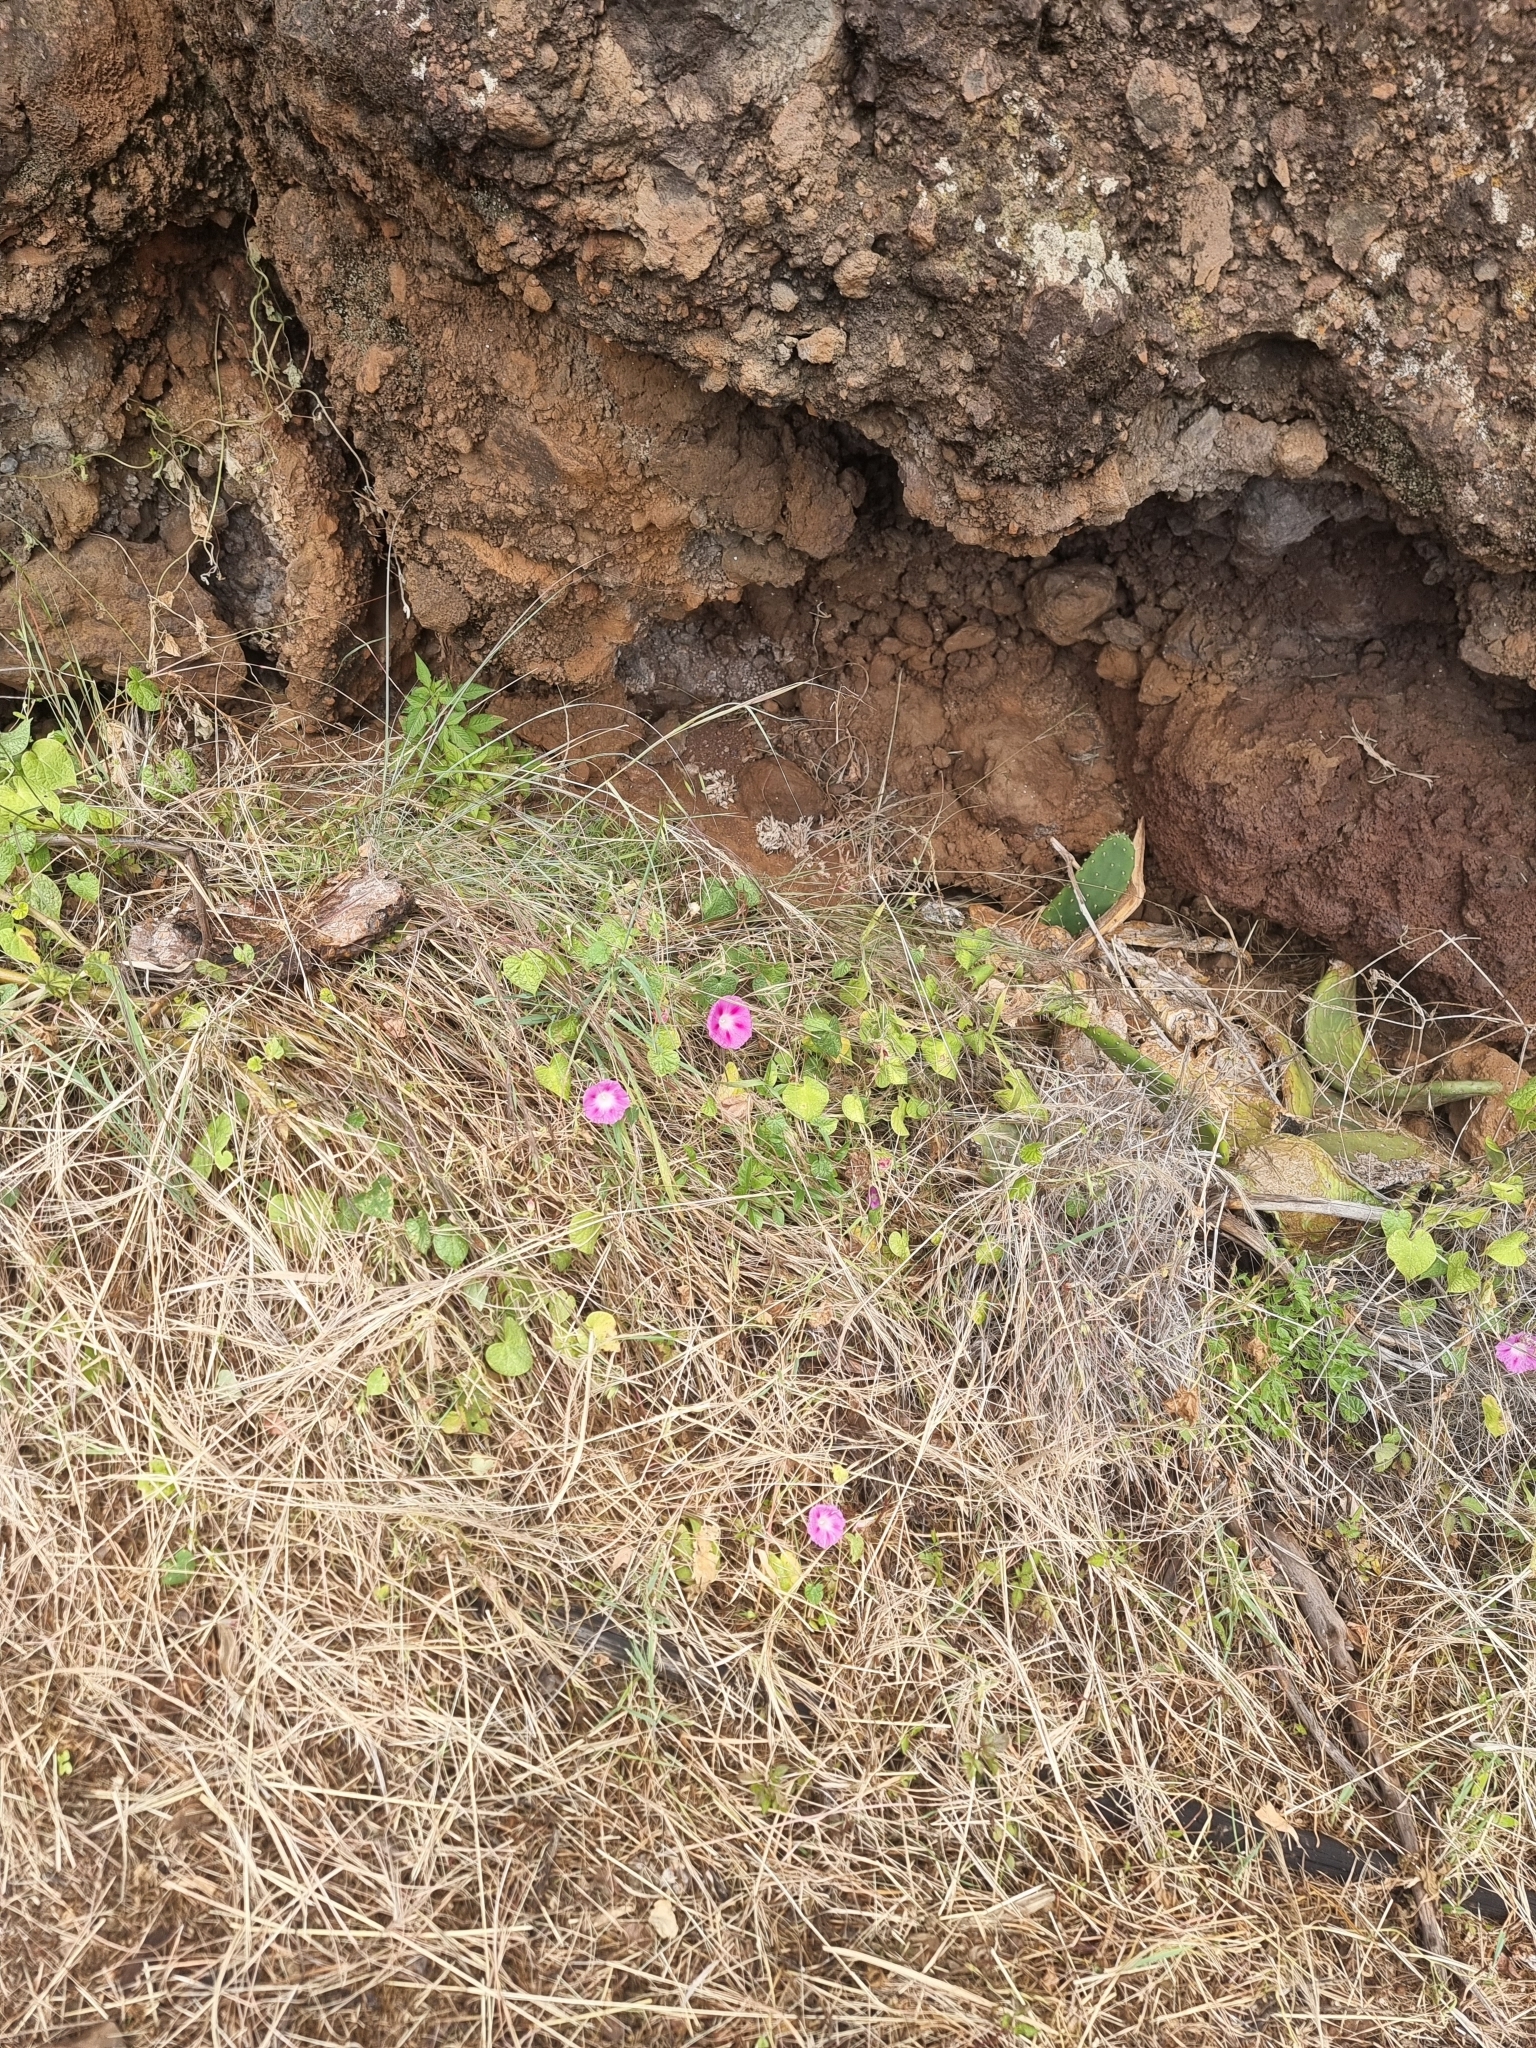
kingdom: Plantae
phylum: Tracheophyta
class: Magnoliopsida
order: Solanales
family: Convolvulaceae
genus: Ipomoea
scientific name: Ipomoea purpurea
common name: Common morning-glory
